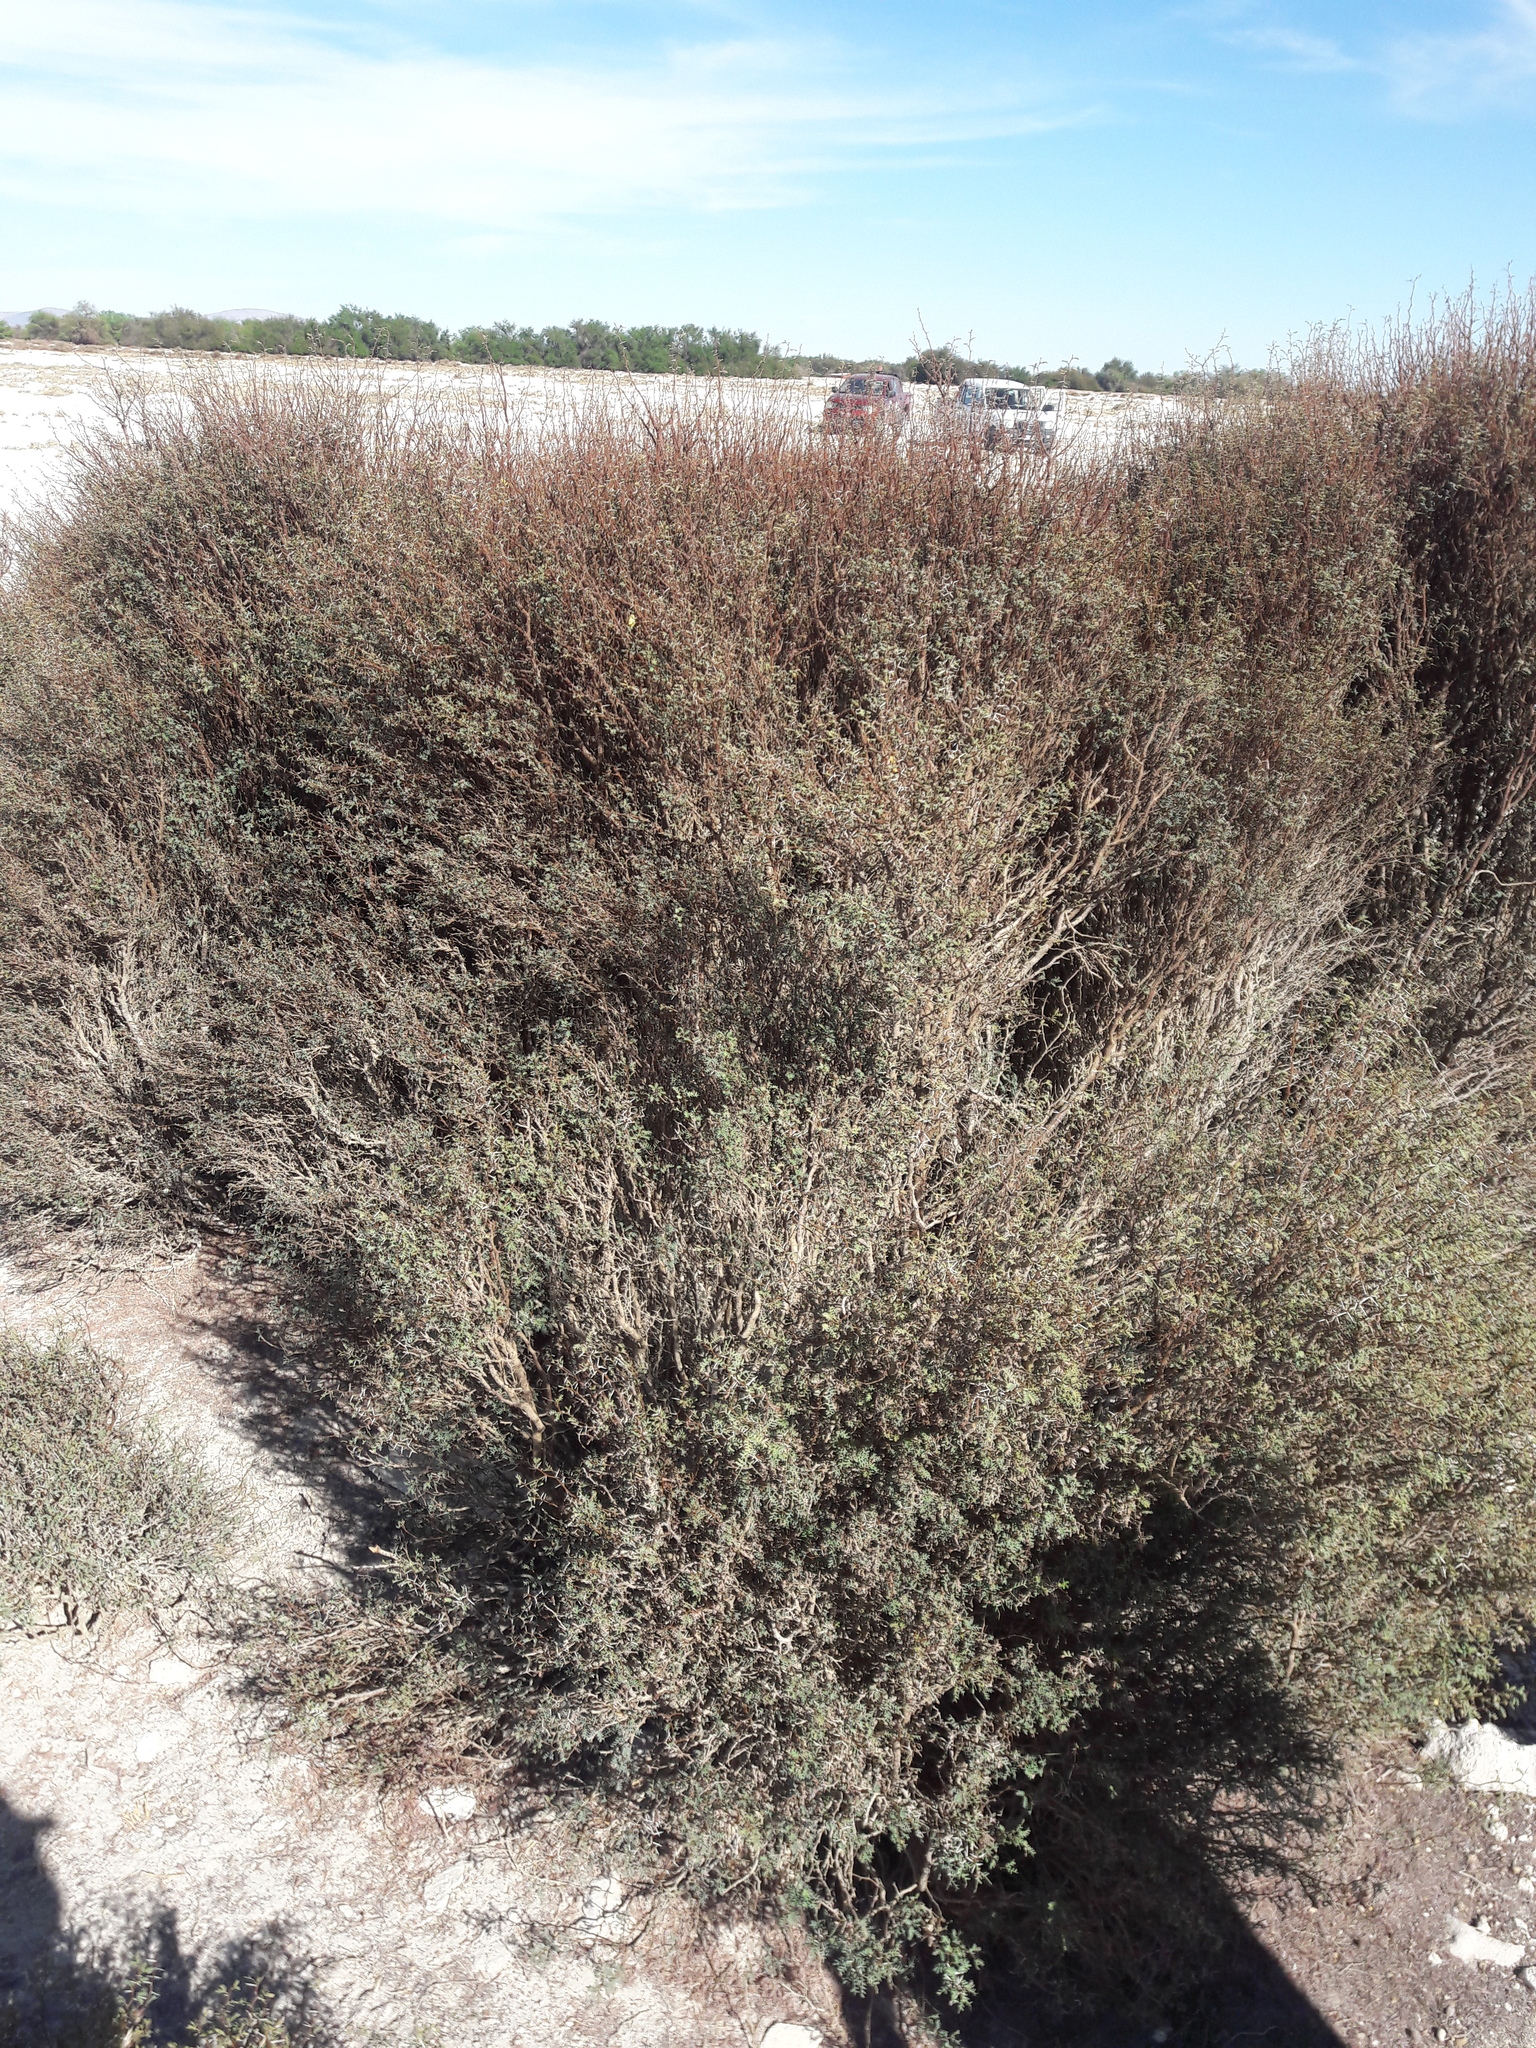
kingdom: Plantae
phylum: Tracheophyta
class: Magnoliopsida
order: Fabales
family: Fabaceae
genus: Prosopis
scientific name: Prosopis strombulifera
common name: Creeping mesquite
